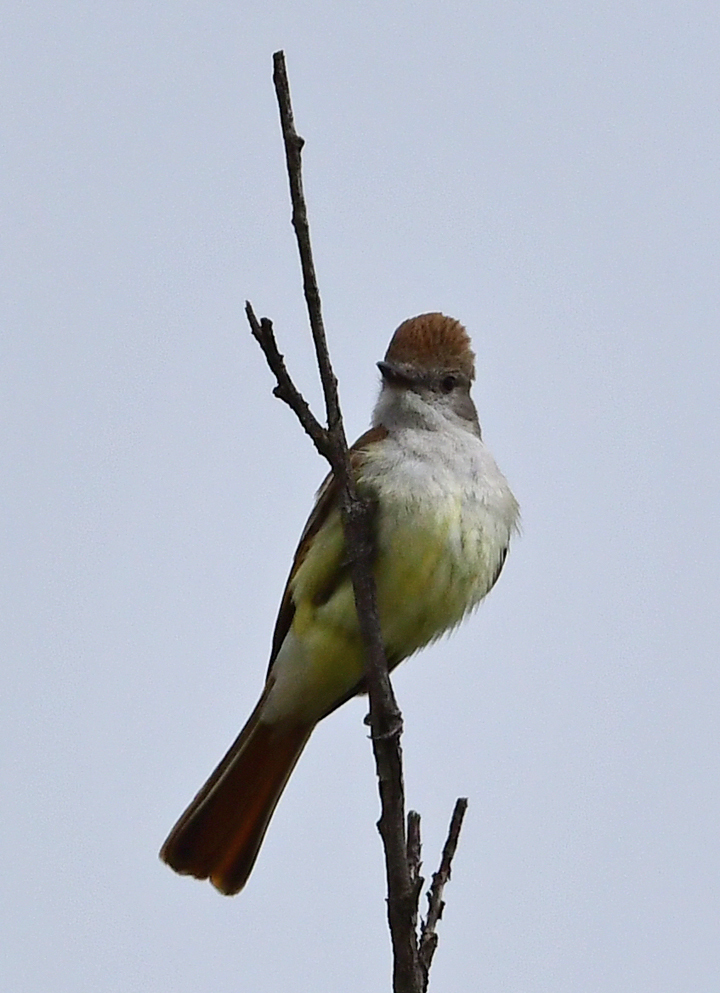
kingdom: Animalia
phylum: Chordata
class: Aves
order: Passeriformes
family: Tyrannidae
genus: Myiarchus
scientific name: Myiarchus cinerascens
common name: Ash-throated flycatcher
